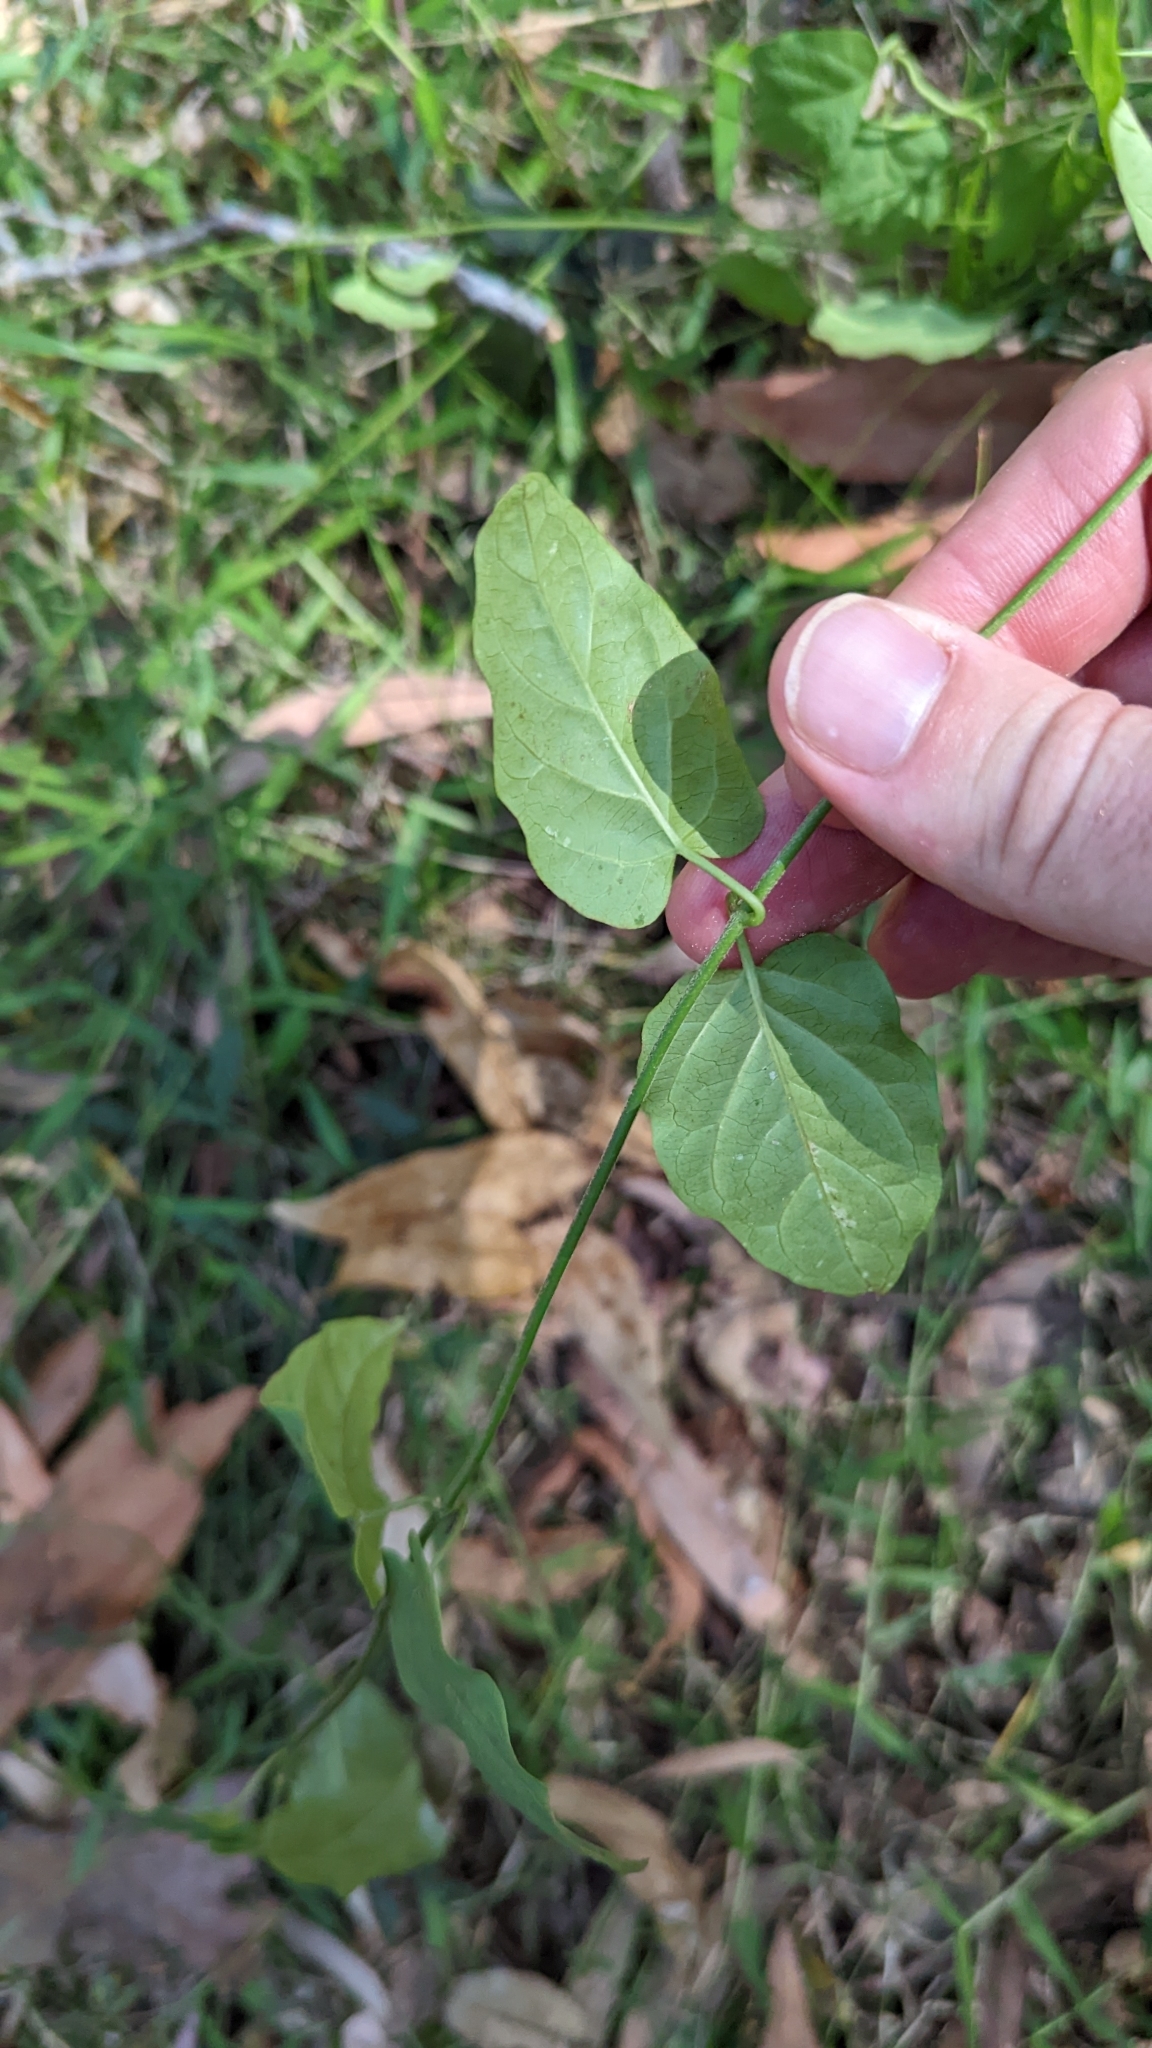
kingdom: Plantae
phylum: Tracheophyta
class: Magnoliopsida
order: Gentianales
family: Apocynaceae
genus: Parsonsia
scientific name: Parsonsia velutina
